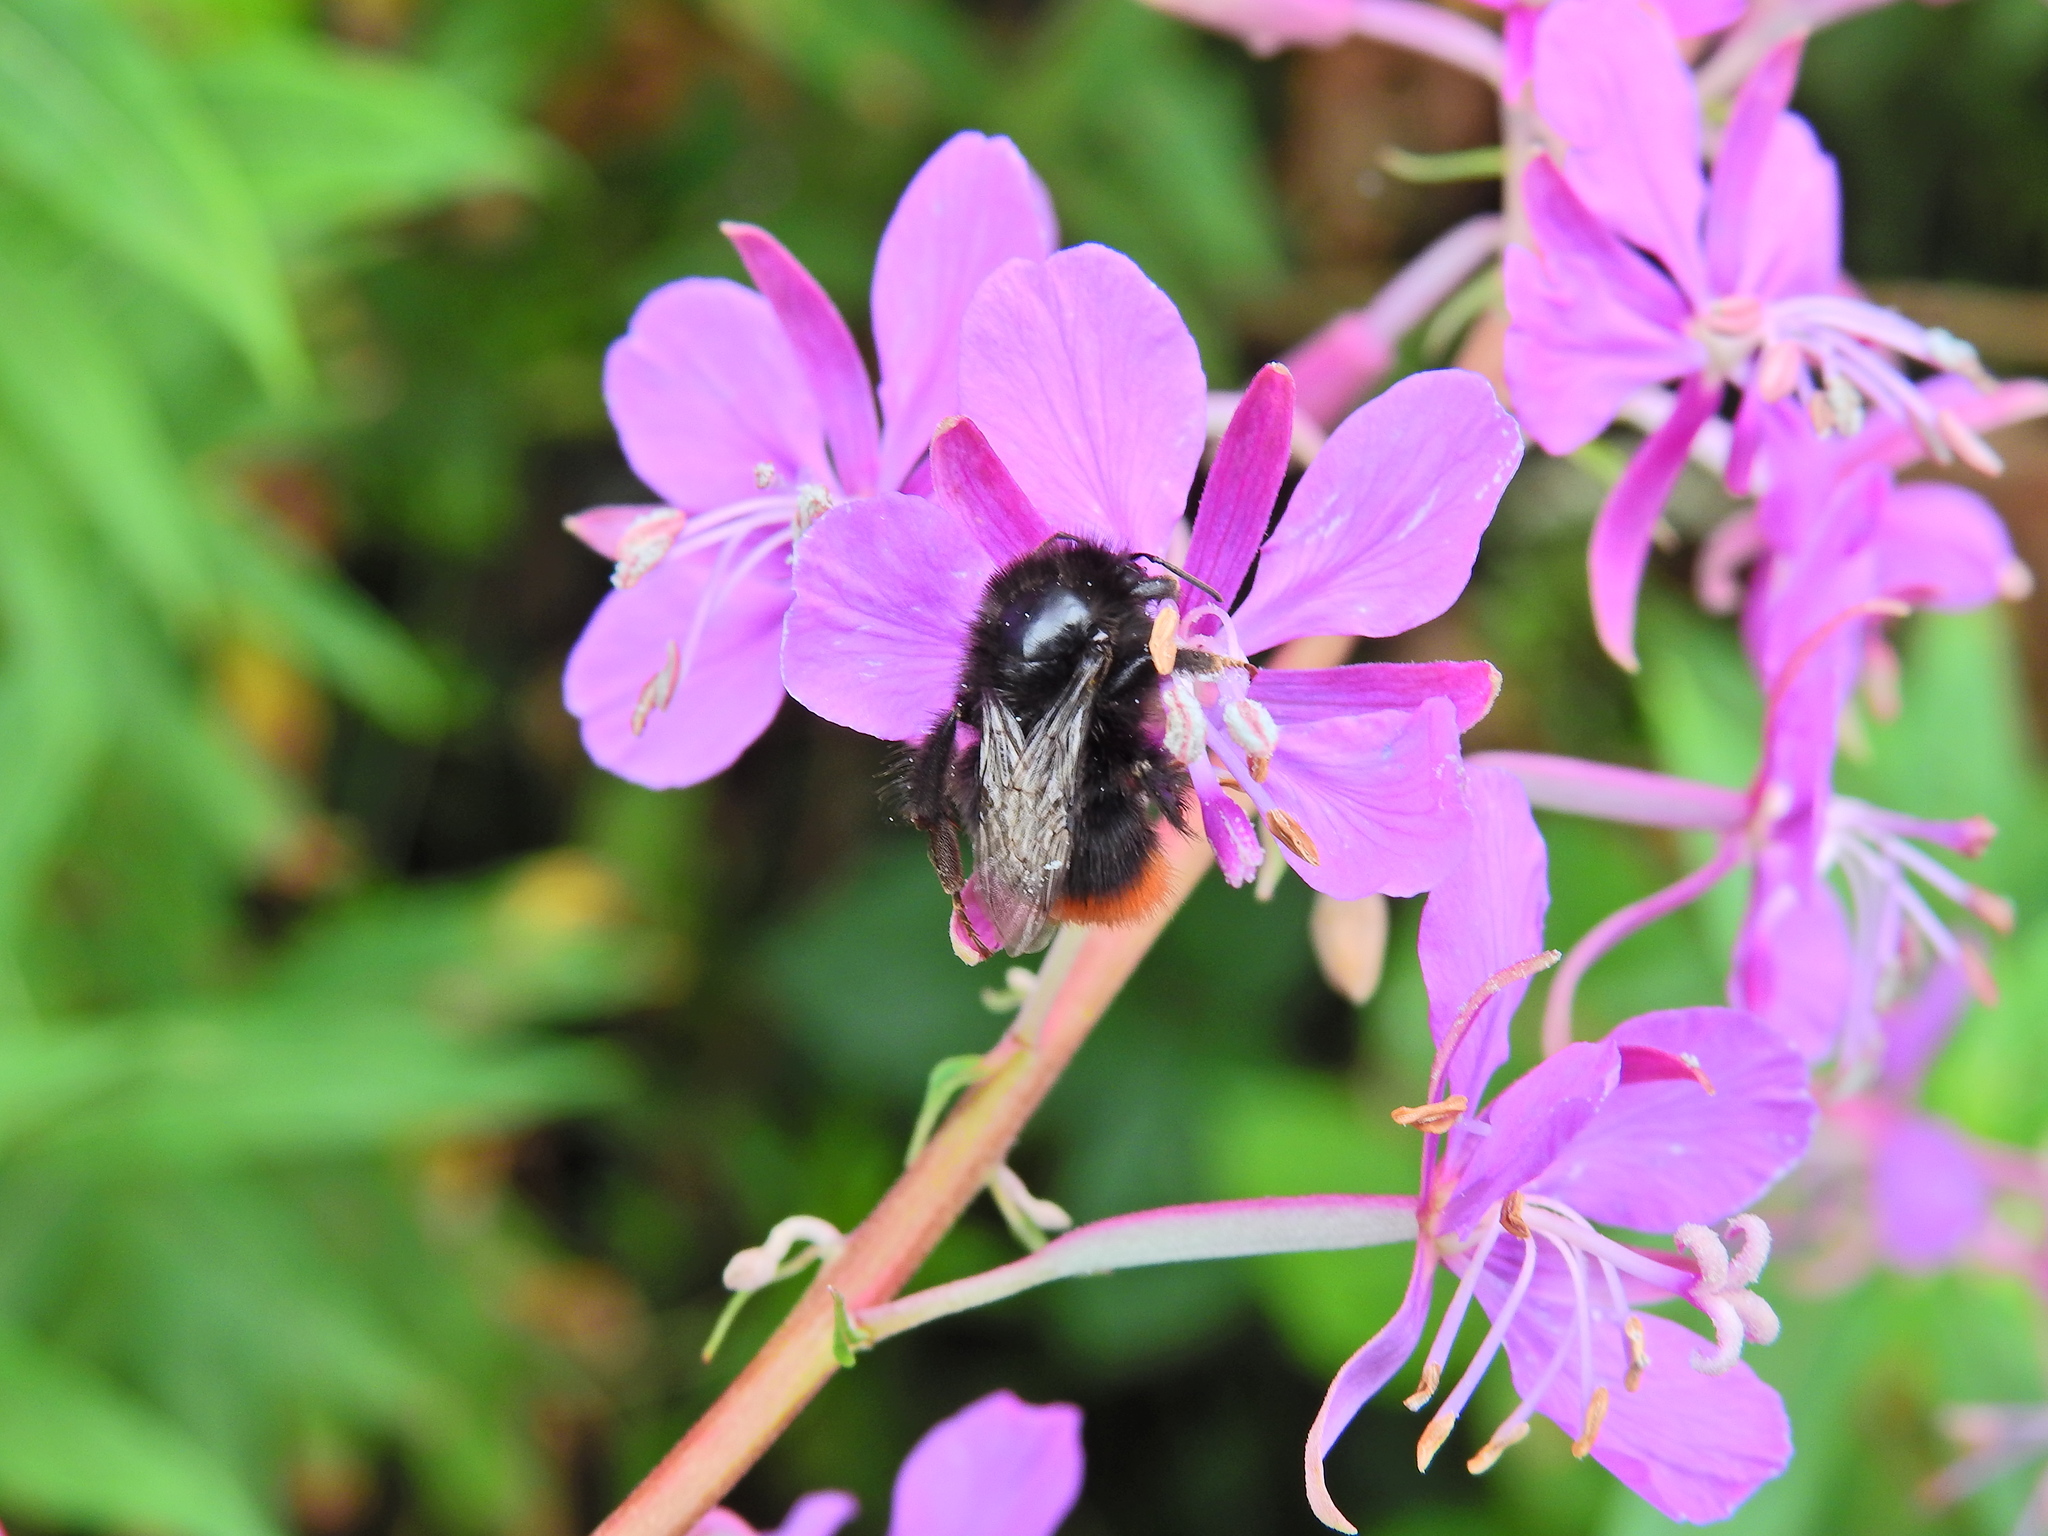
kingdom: Animalia
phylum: Arthropoda
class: Insecta
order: Hymenoptera
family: Apidae
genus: Bombus
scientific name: Bombus lapidarius
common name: Large red-tailed humble-bee
